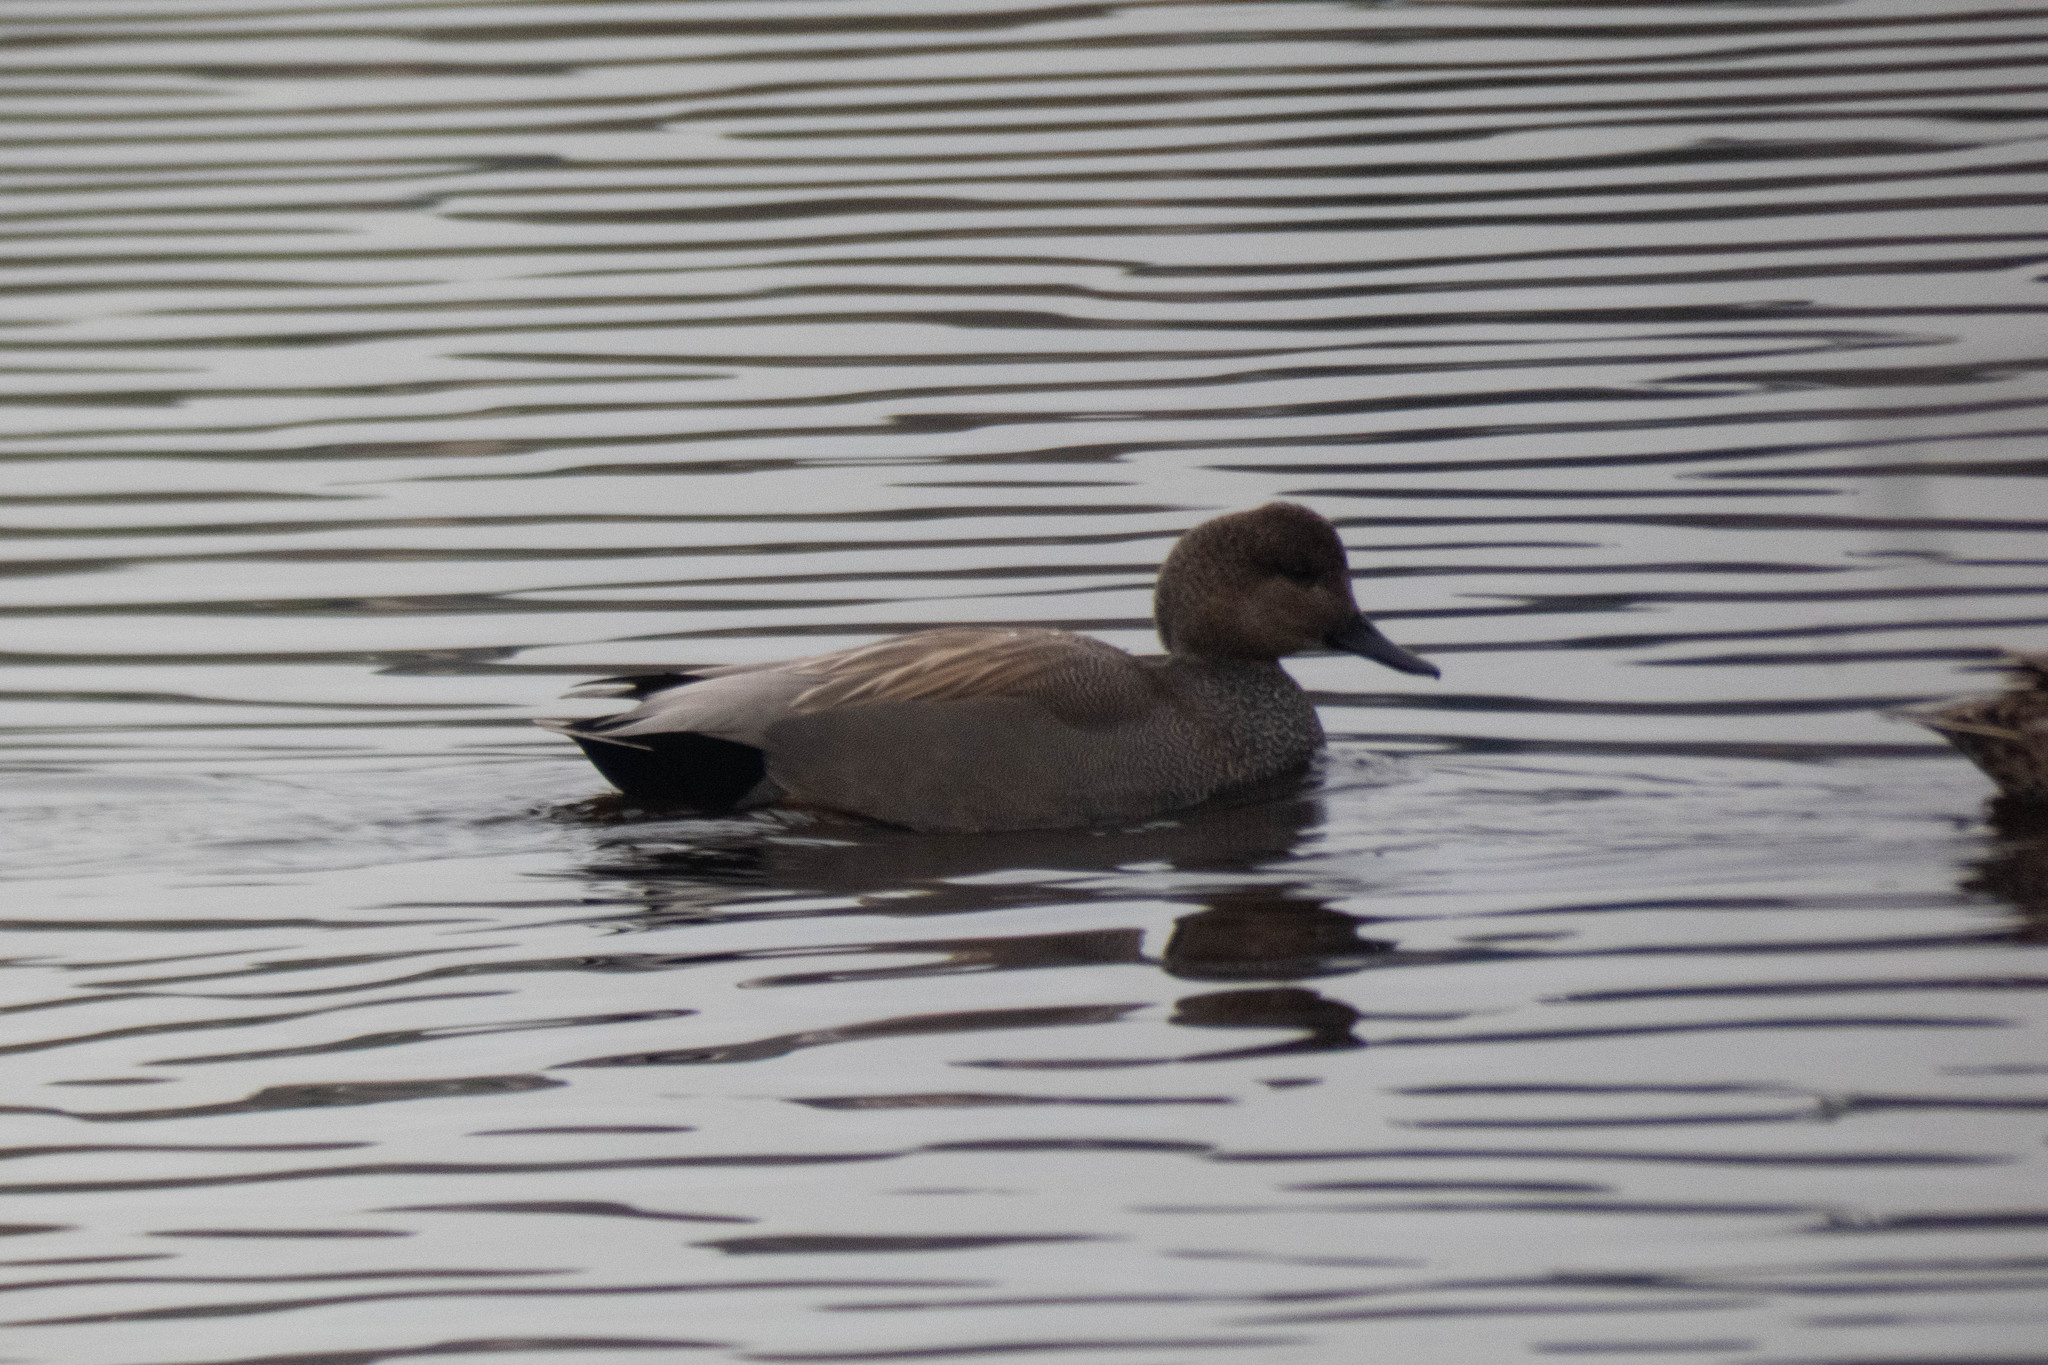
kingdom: Animalia
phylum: Chordata
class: Aves
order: Anseriformes
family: Anatidae
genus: Mareca
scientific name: Mareca strepera
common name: Gadwall
